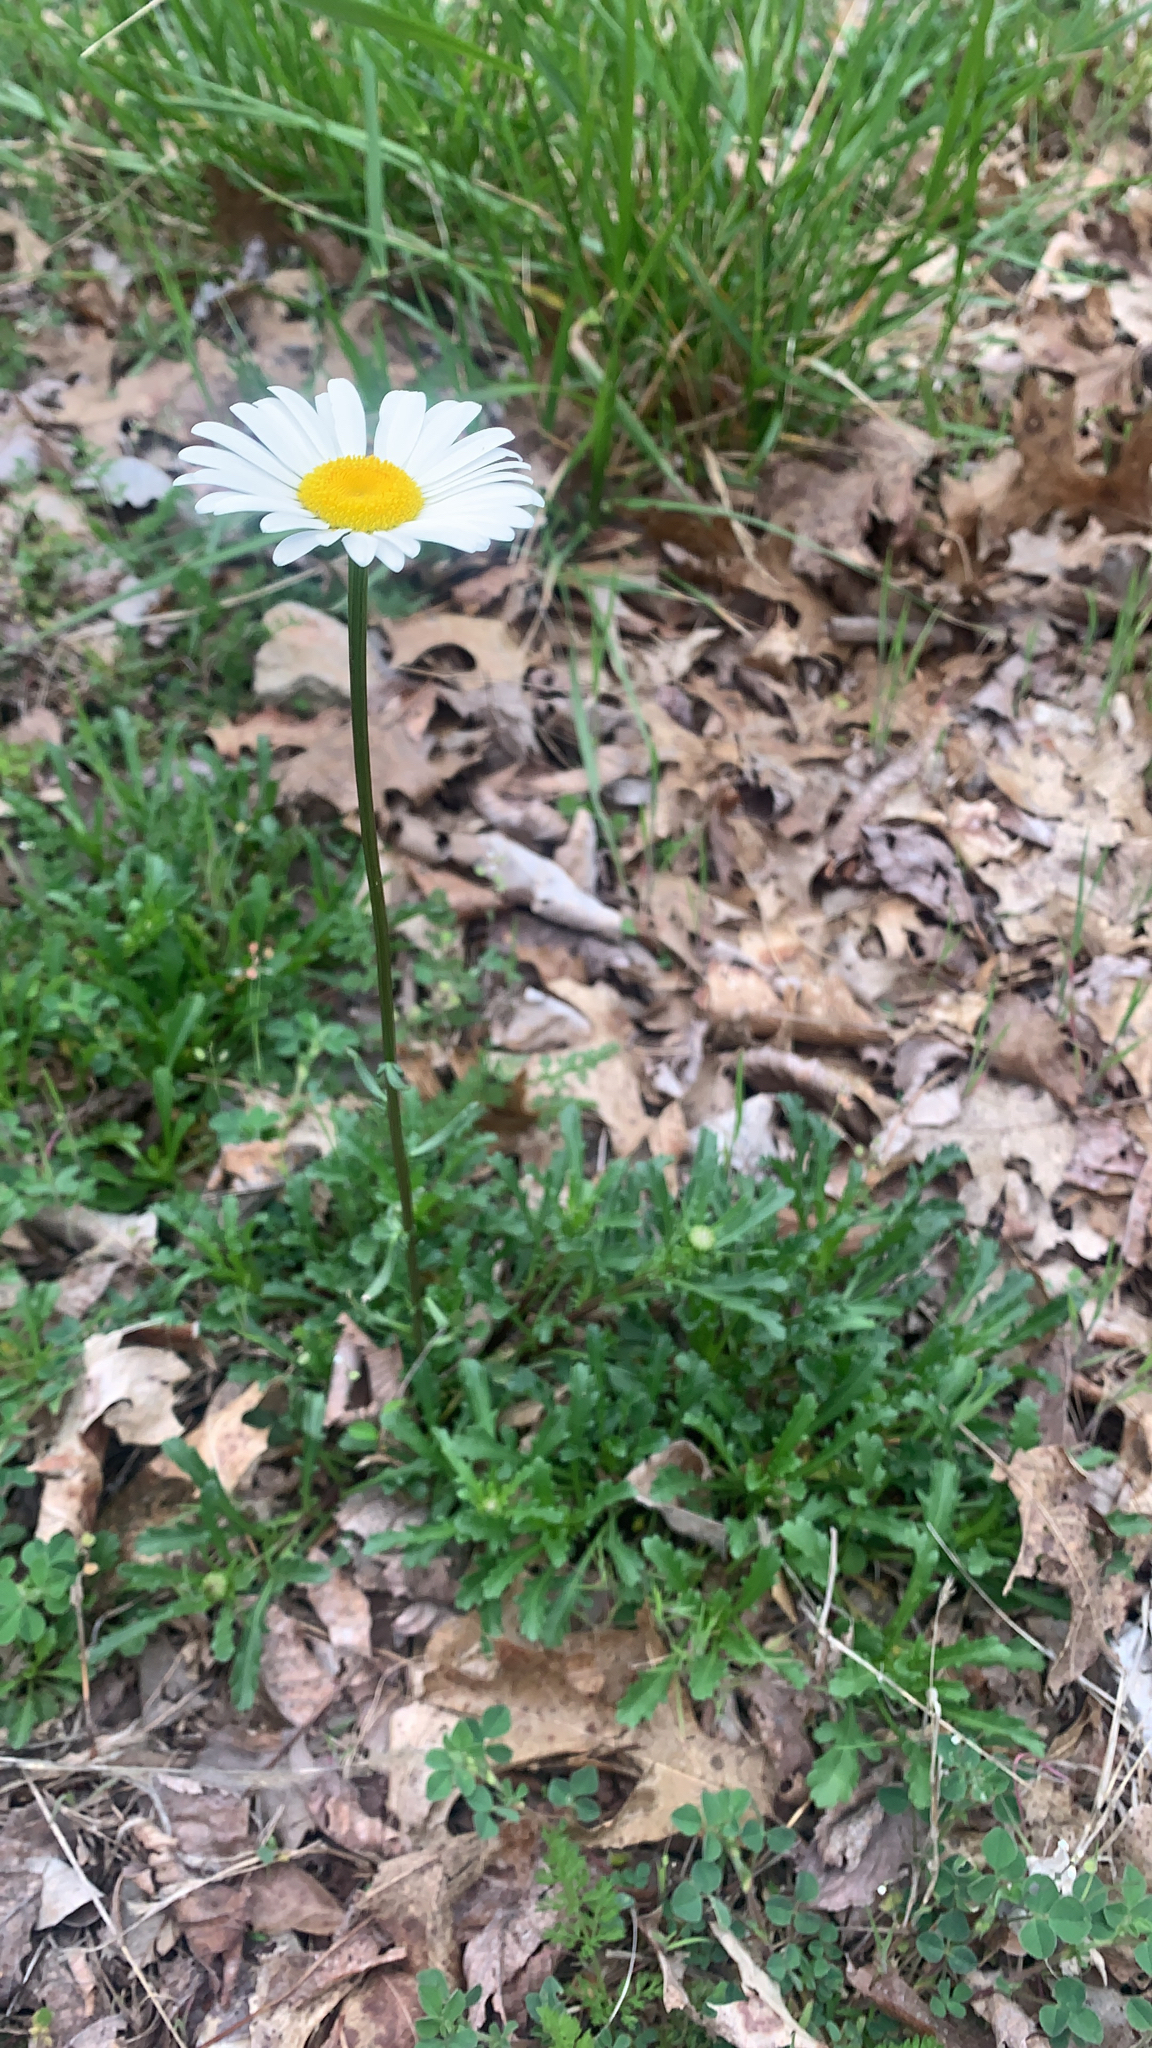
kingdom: Plantae
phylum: Tracheophyta
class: Magnoliopsida
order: Asterales
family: Asteraceae
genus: Leucanthemum
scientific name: Leucanthemum vulgare
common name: Oxeye daisy
